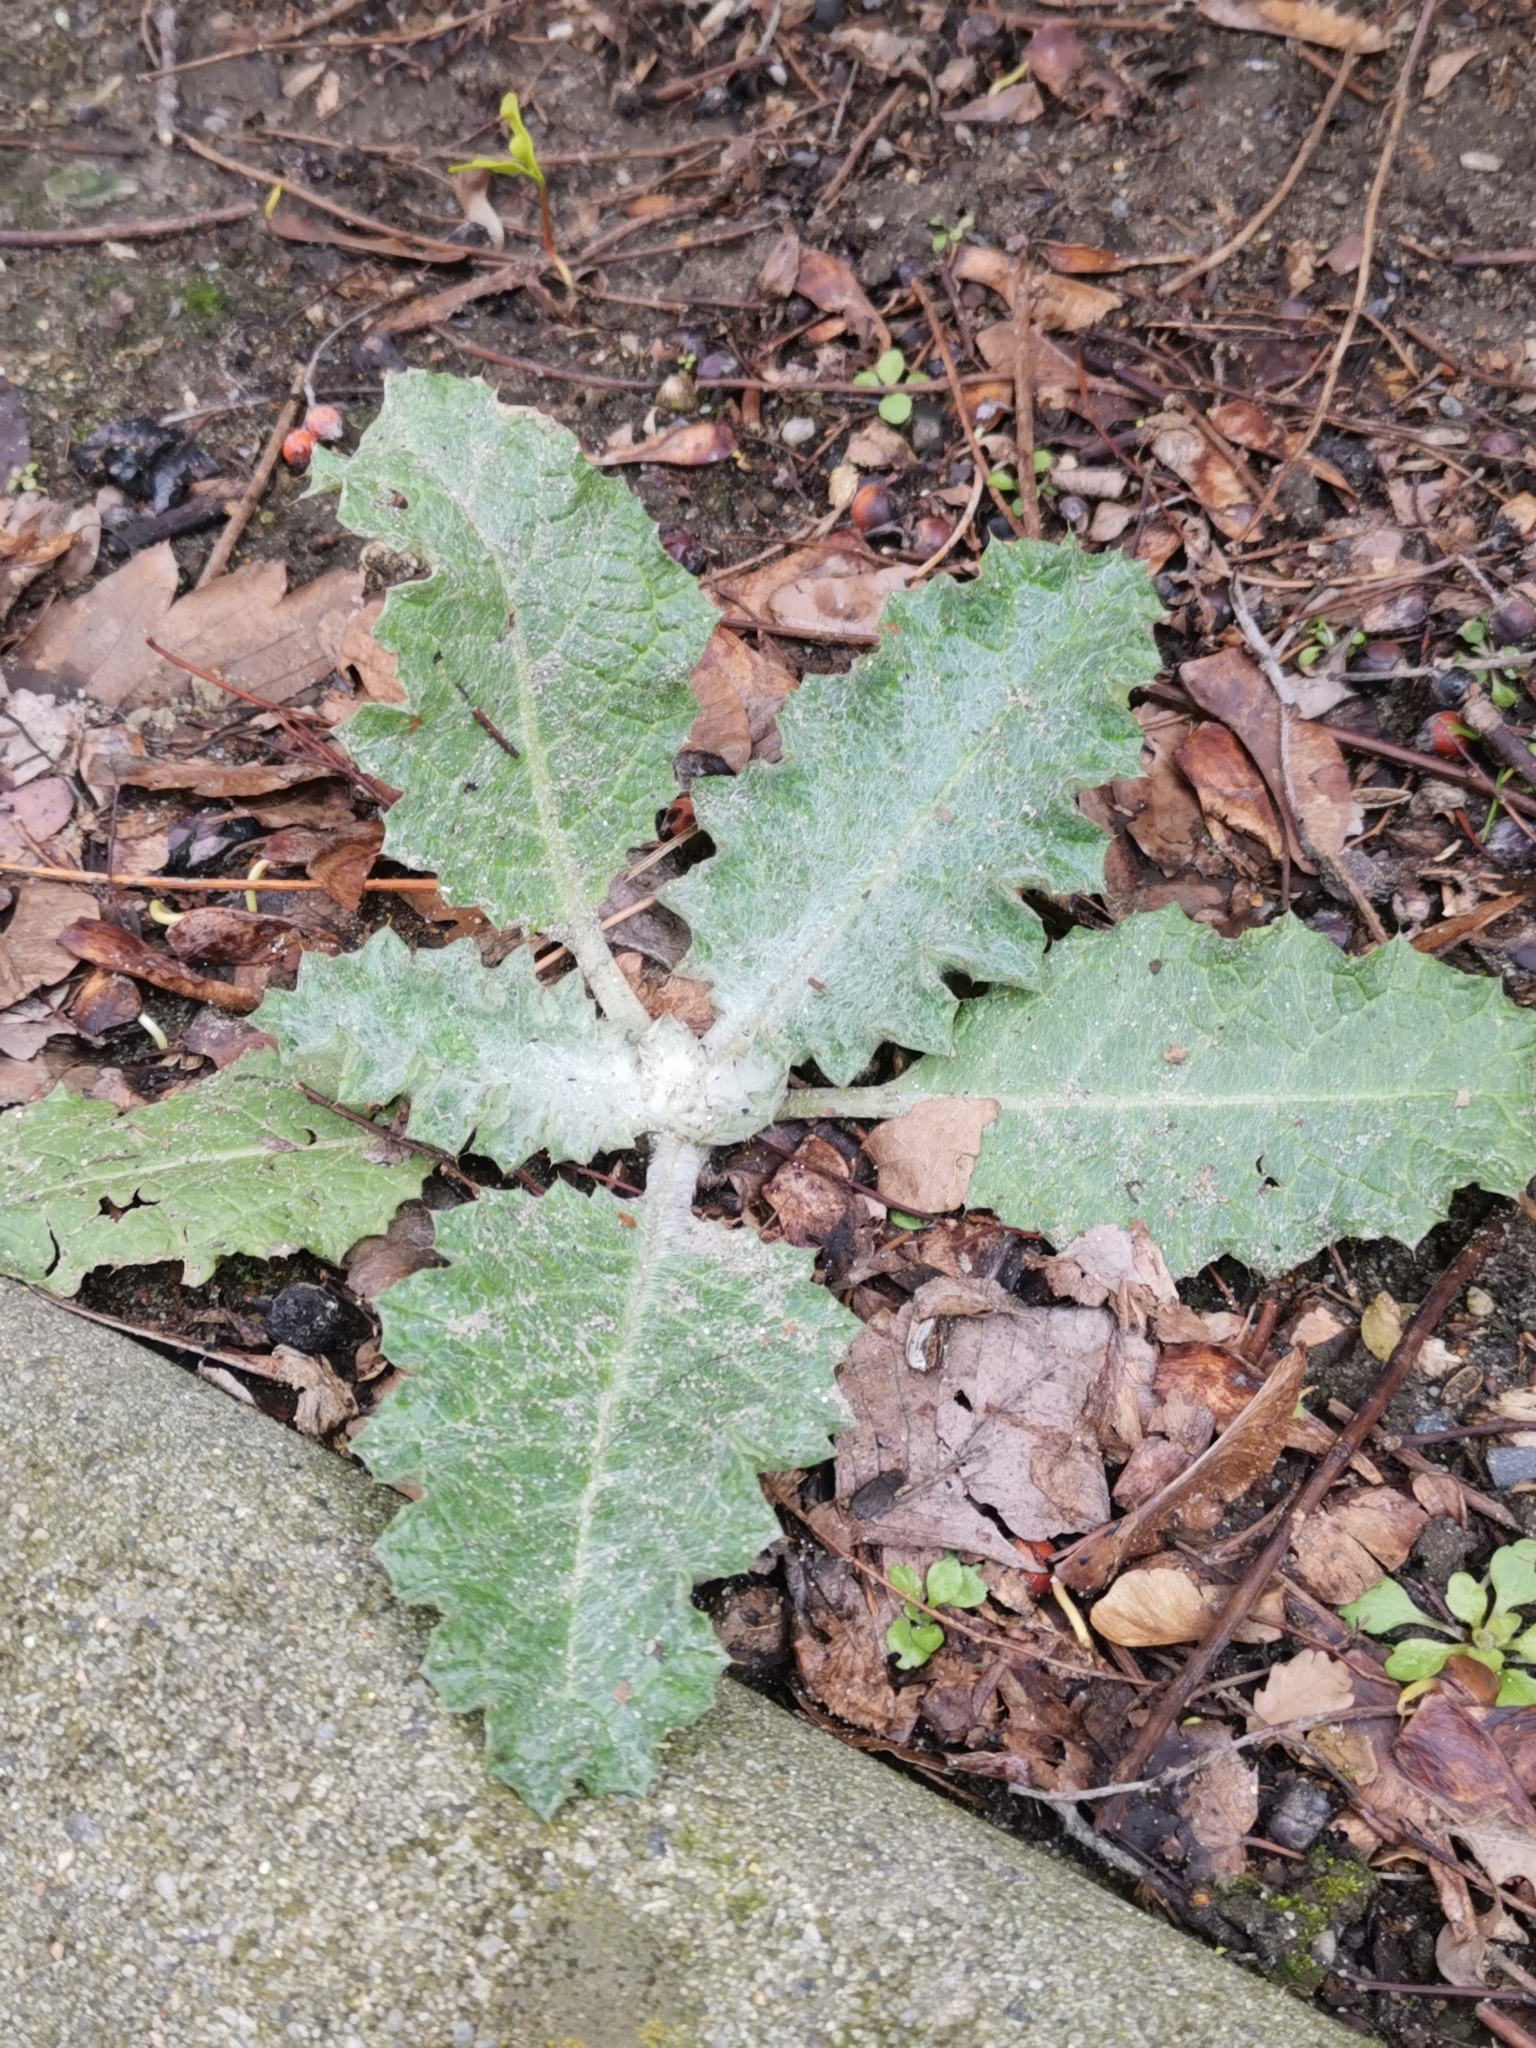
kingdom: Plantae
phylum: Tracheophyta
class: Magnoliopsida
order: Asterales
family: Asteraceae
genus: Onopordum
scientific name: Onopordum acanthium
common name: Scotch thistle
